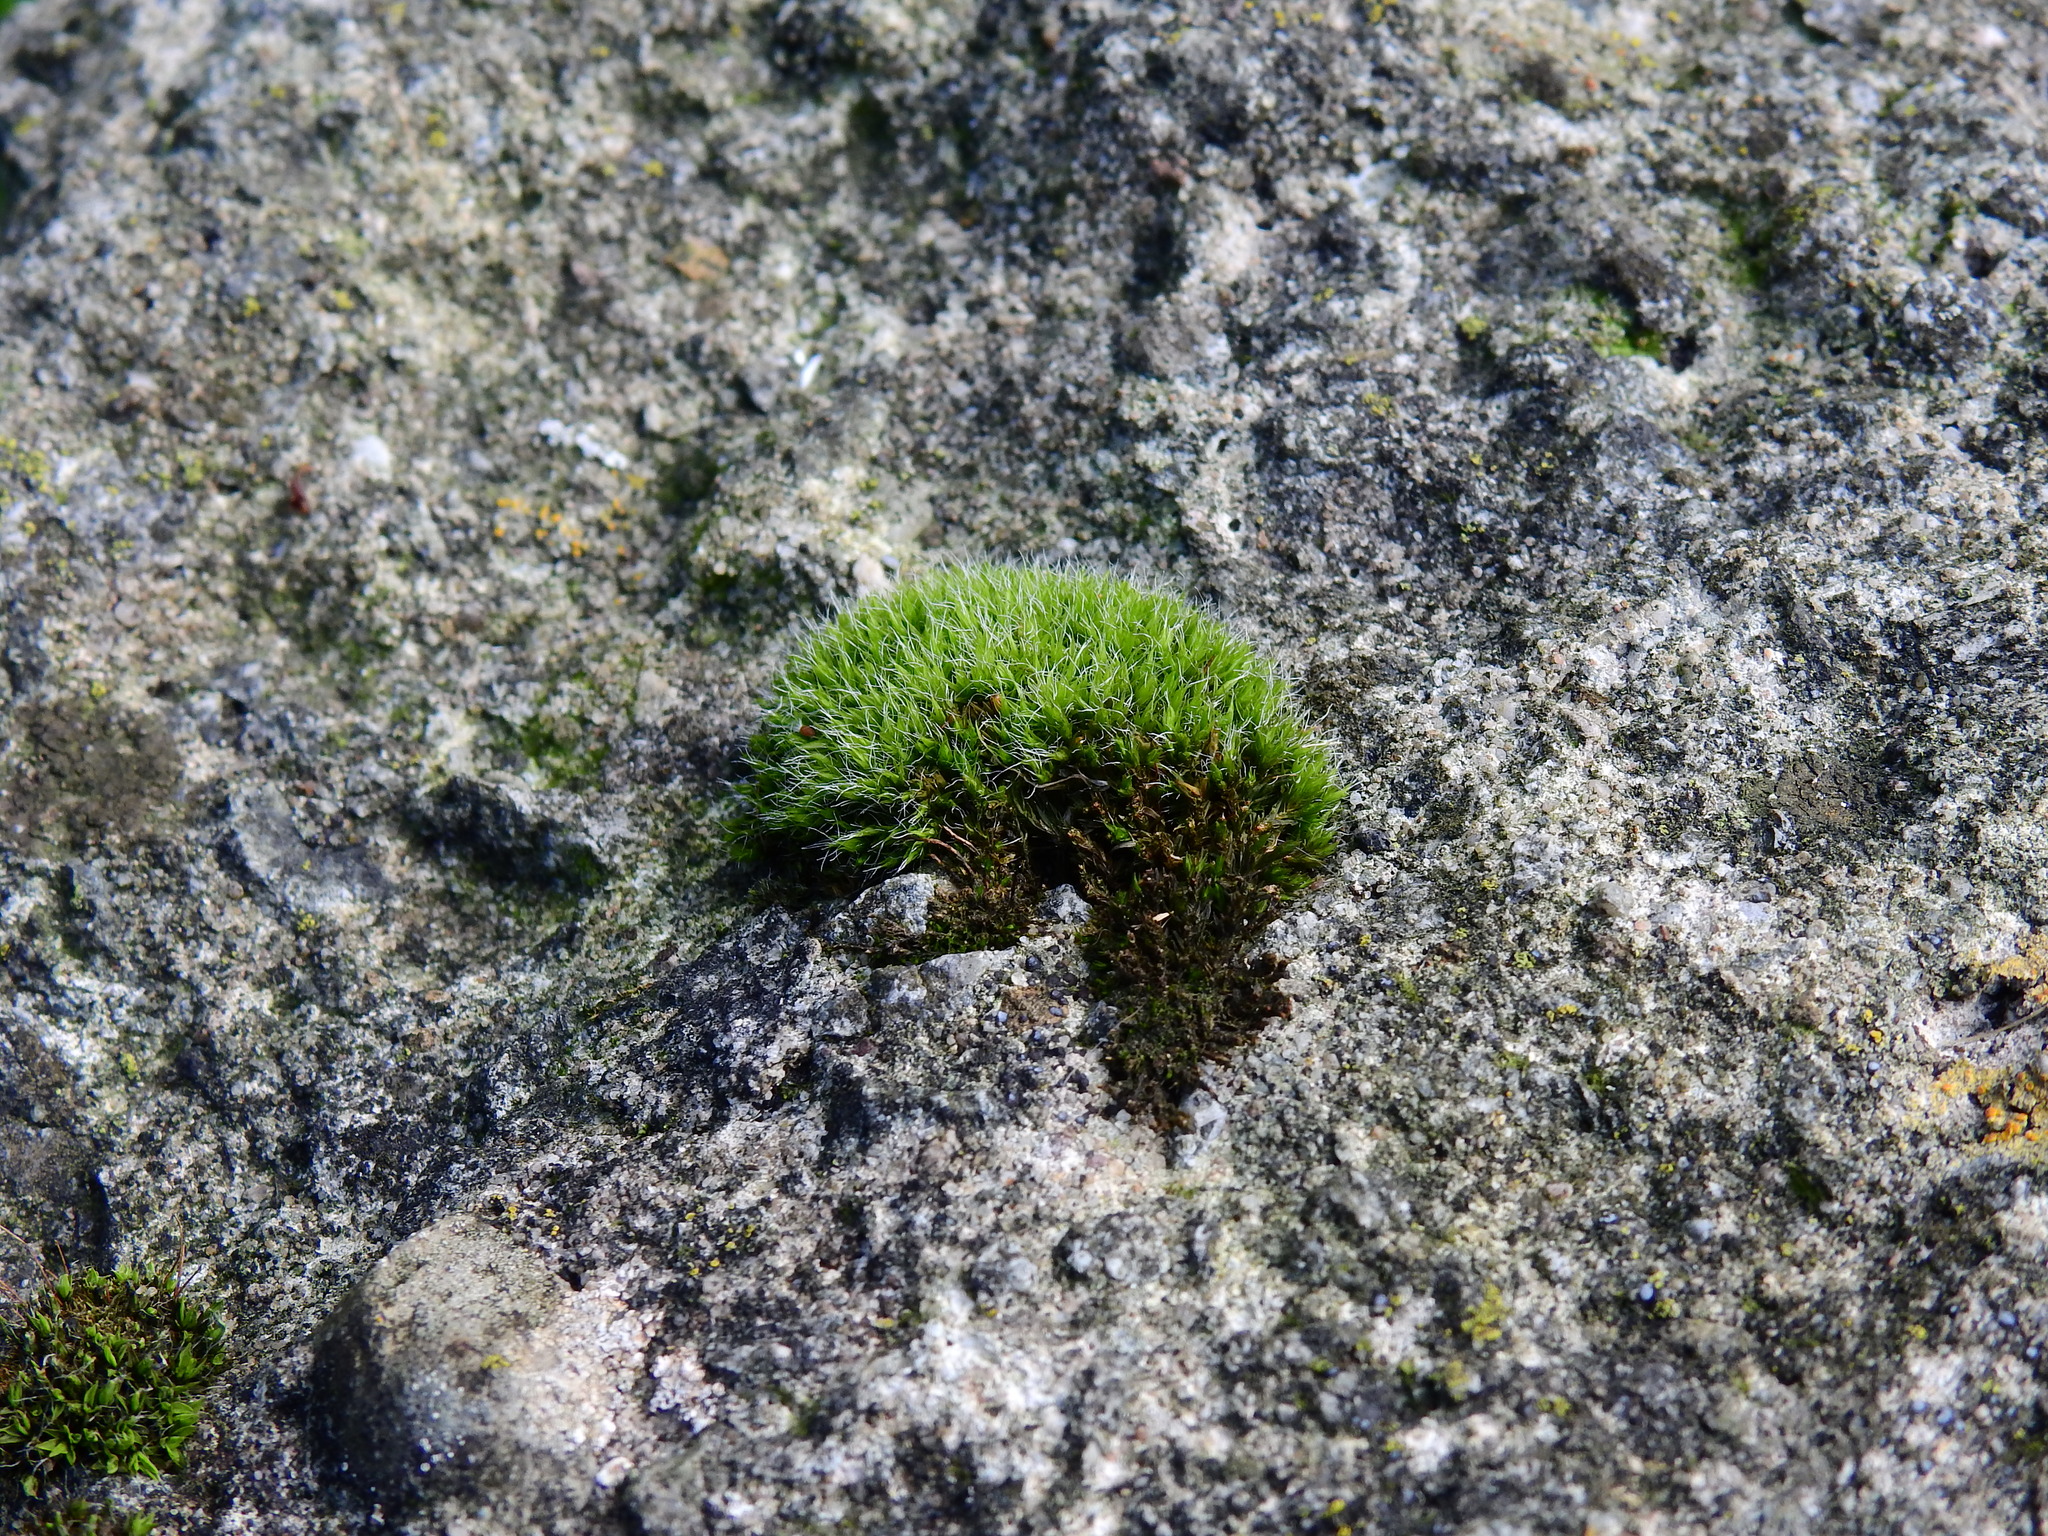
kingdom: Plantae
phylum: Bryophyta
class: Bryopsida
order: Grimmiales
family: Grimmiaceae
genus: Grimmia
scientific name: Grimmia pulvinata
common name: Grey-cushioned grimmia
